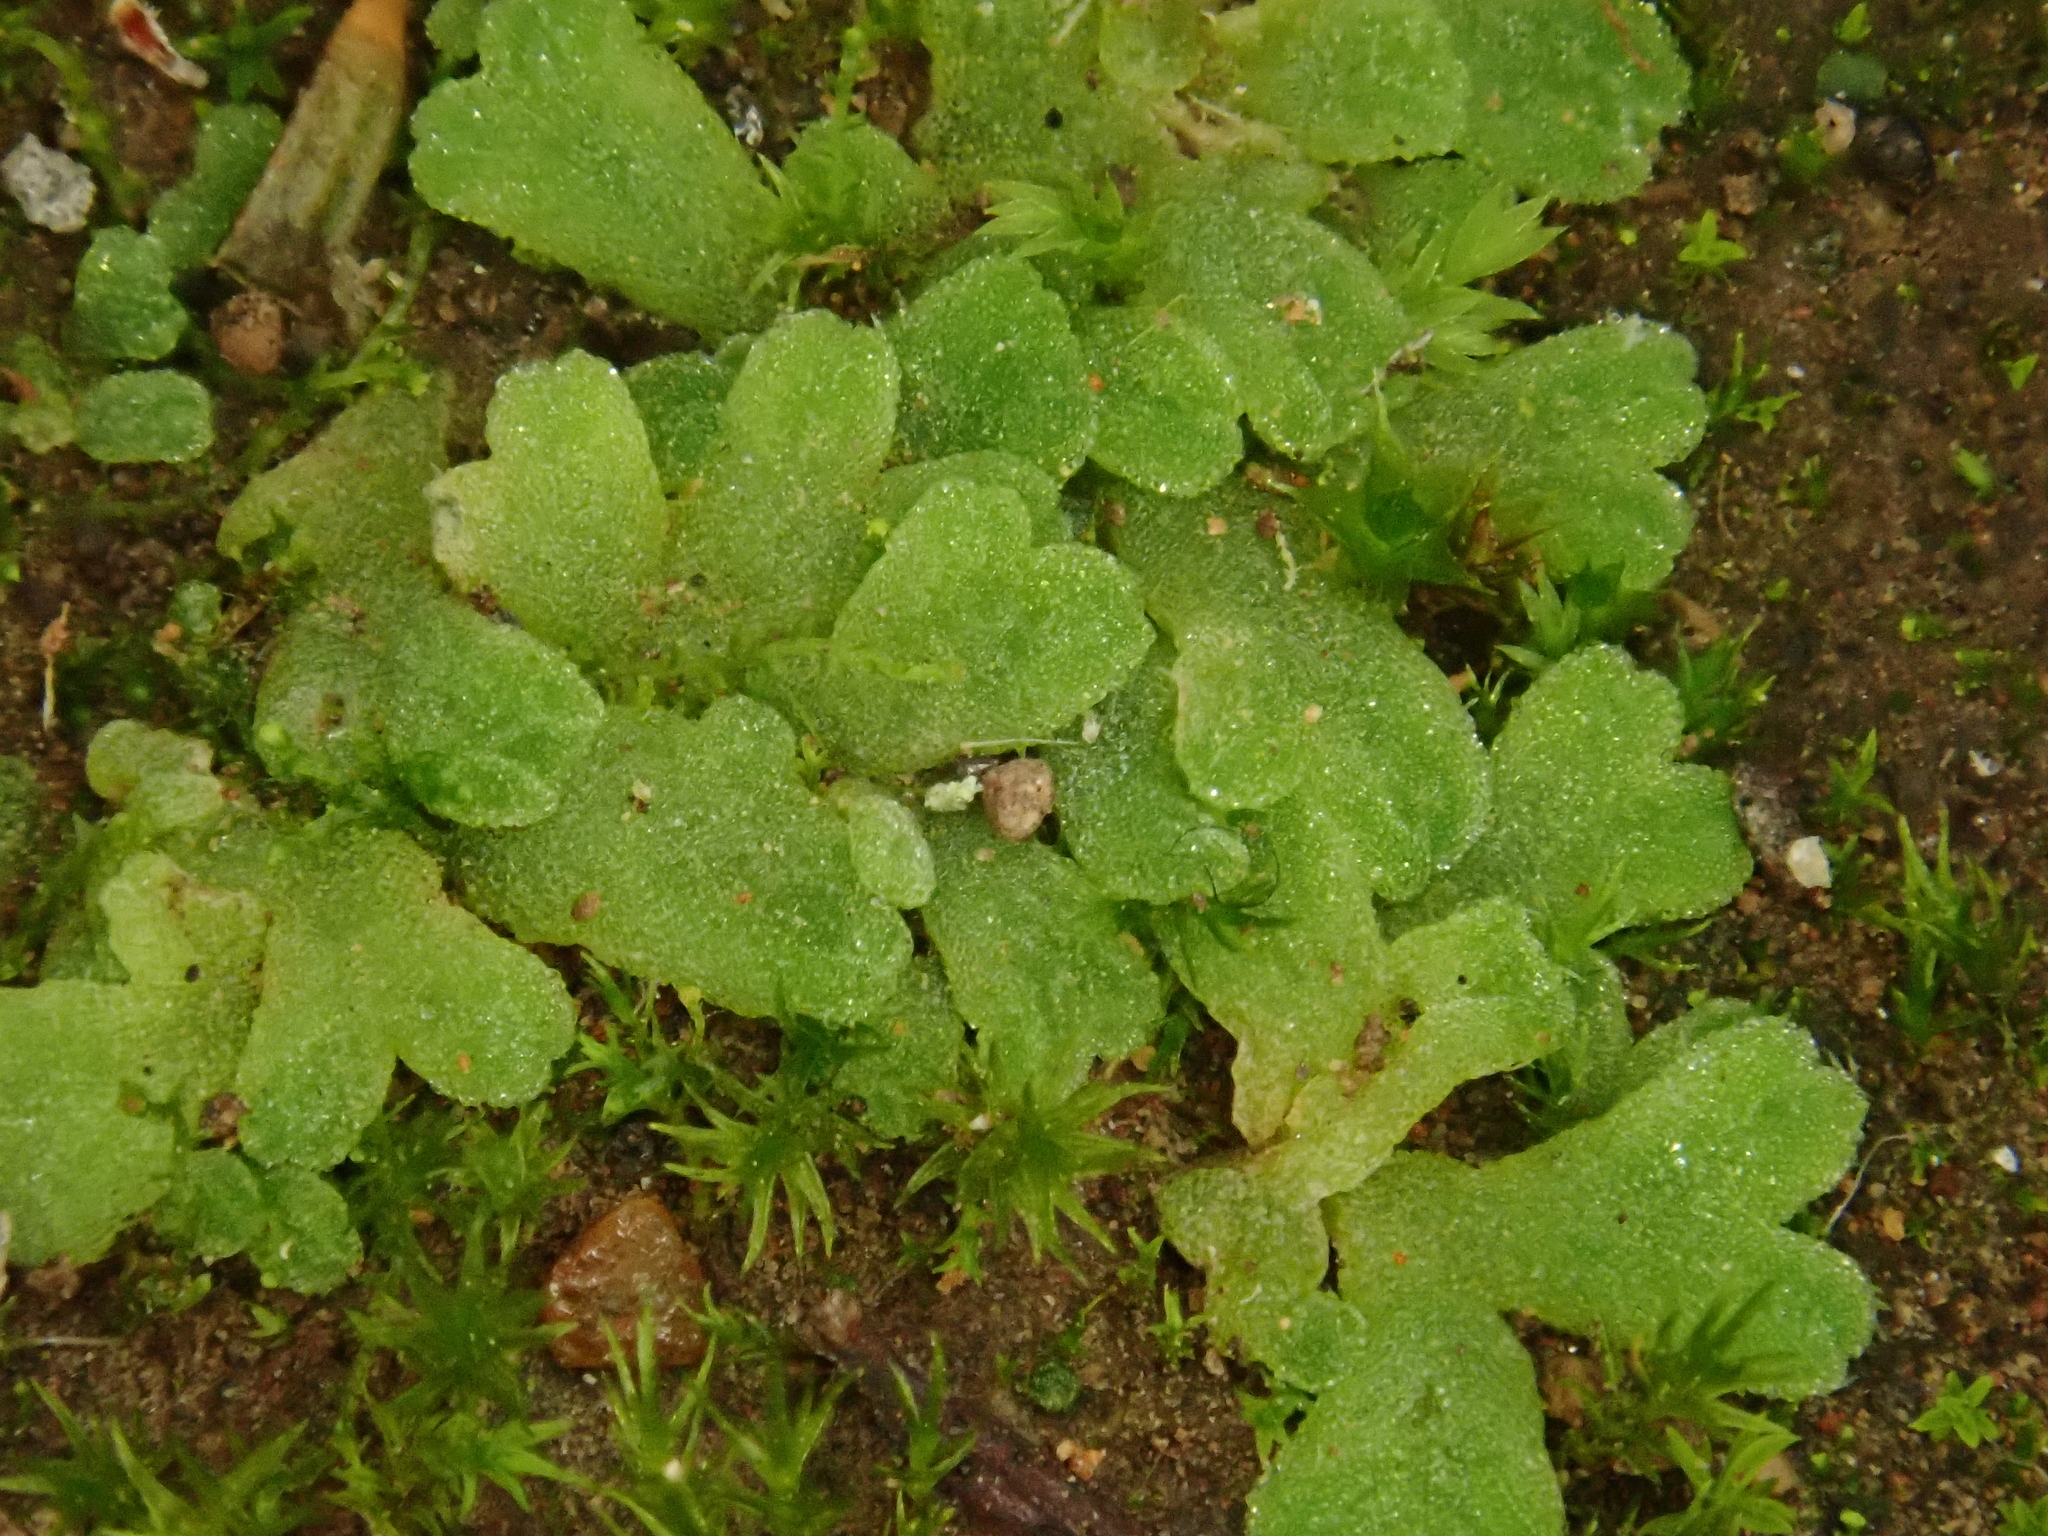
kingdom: Plantae
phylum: Marchantiophyta
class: Marchantiopsida
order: Marchantiales
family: Ricciaceae
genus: Riccia
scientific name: Riccia crozalsii
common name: Ciliate crystalwort
